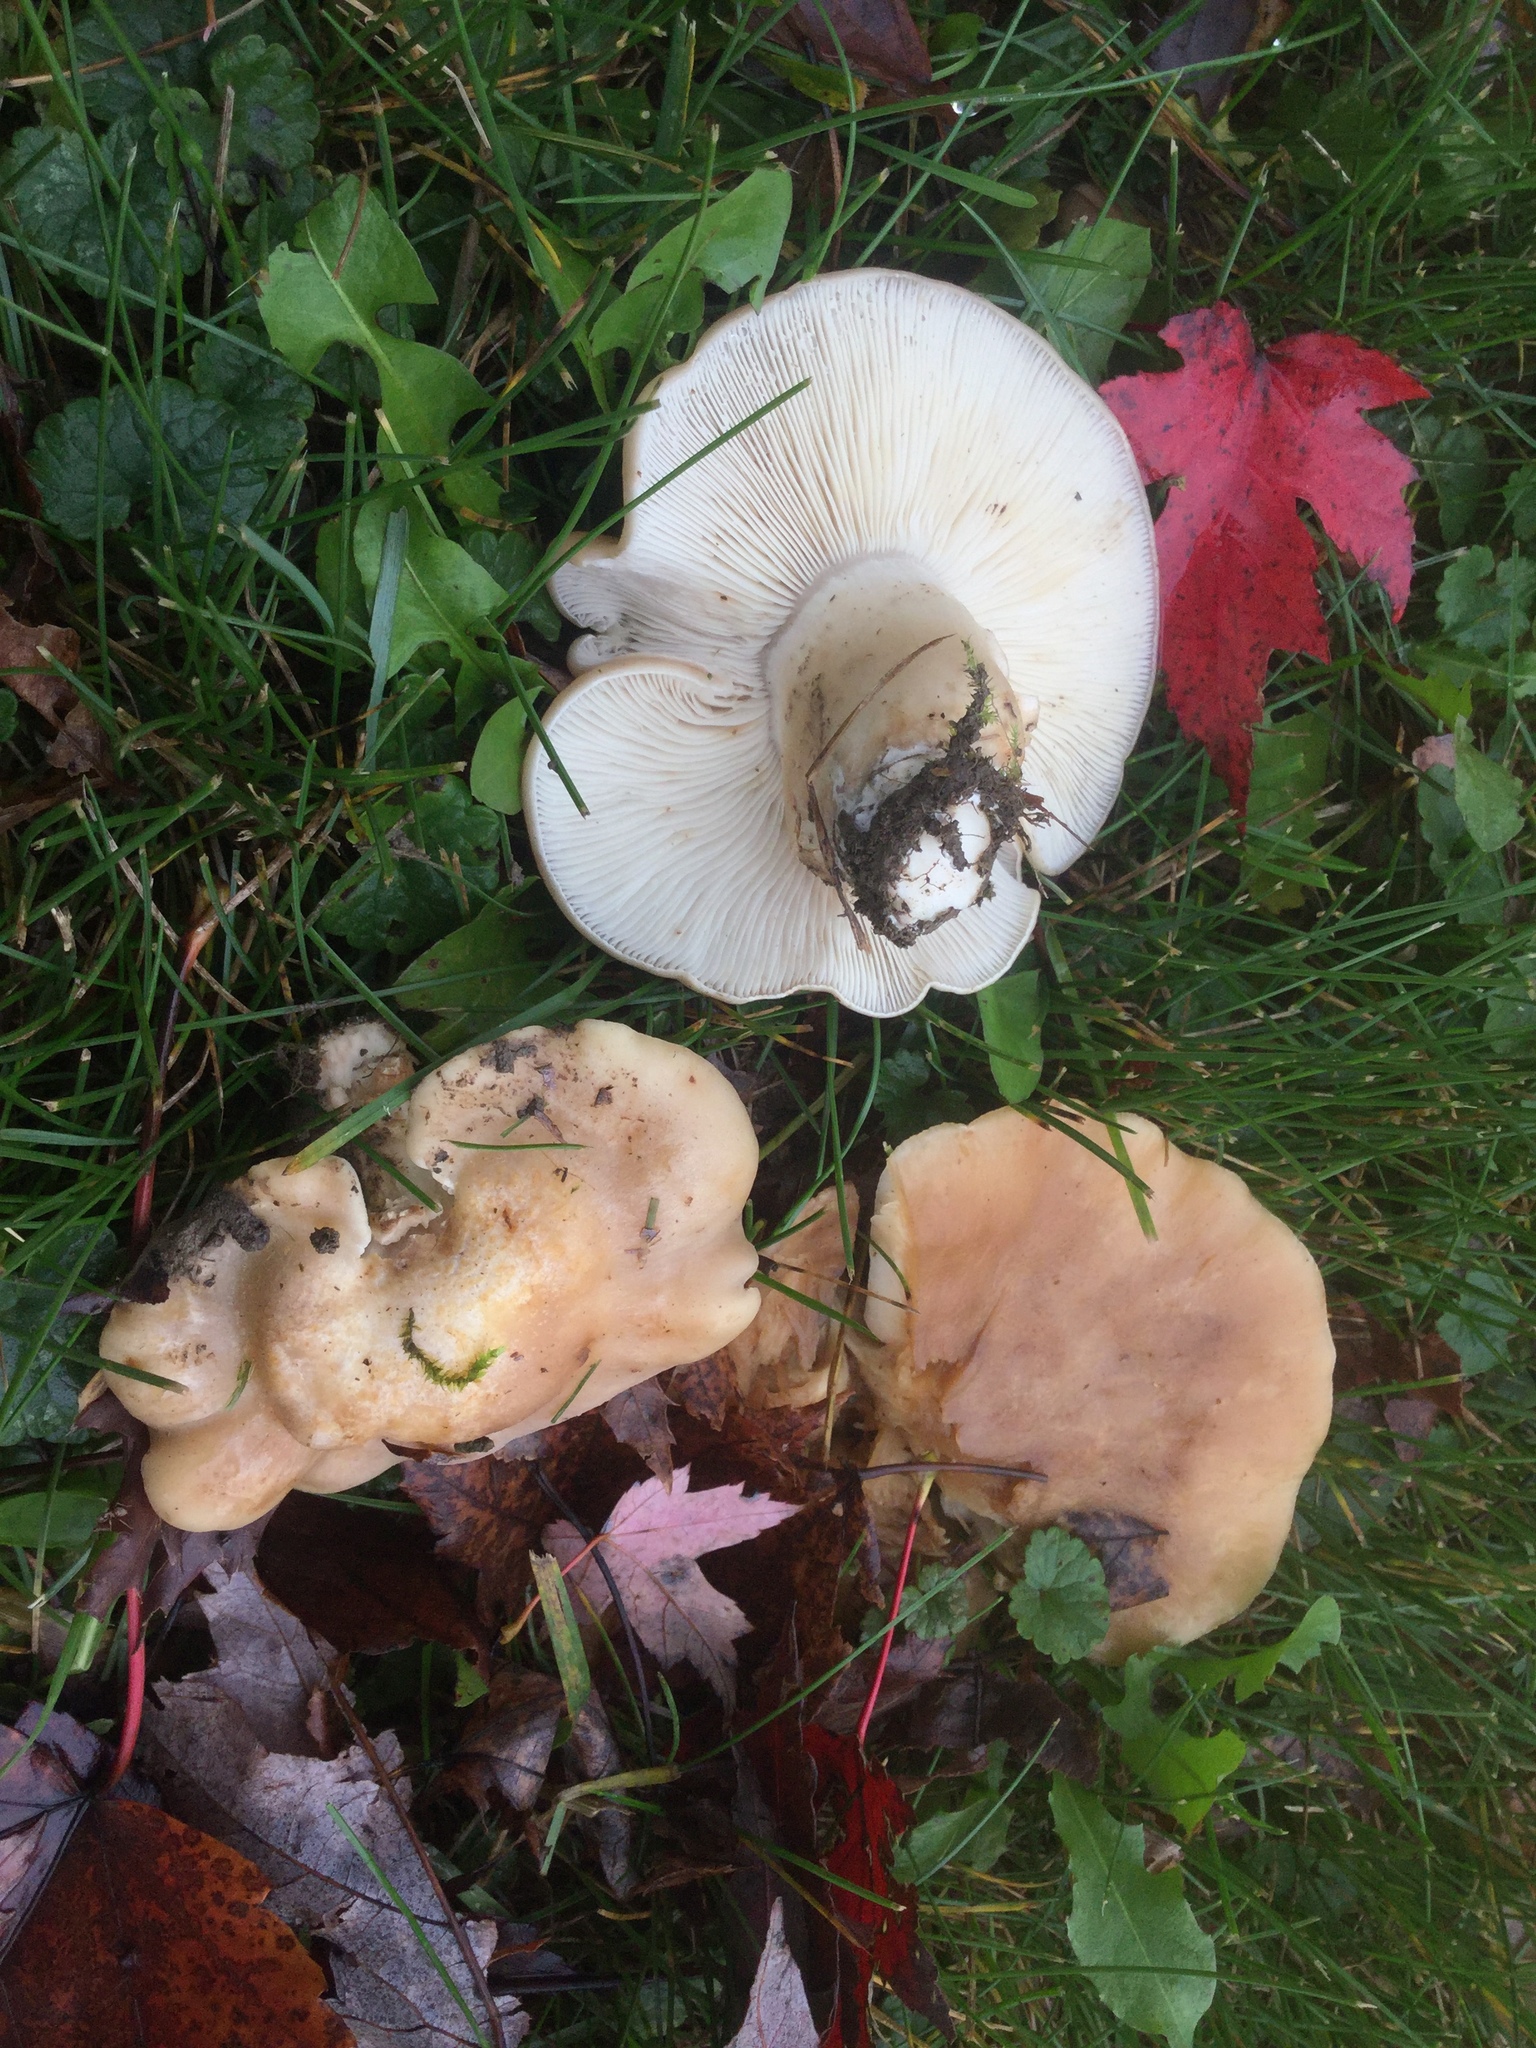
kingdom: Fungi
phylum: Basidiomycota
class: Agaricomycetes
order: Agaricales
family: Lyophyllaceae
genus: Lyophyllum
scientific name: Lyophyllum decastes
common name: Clustered domecap
